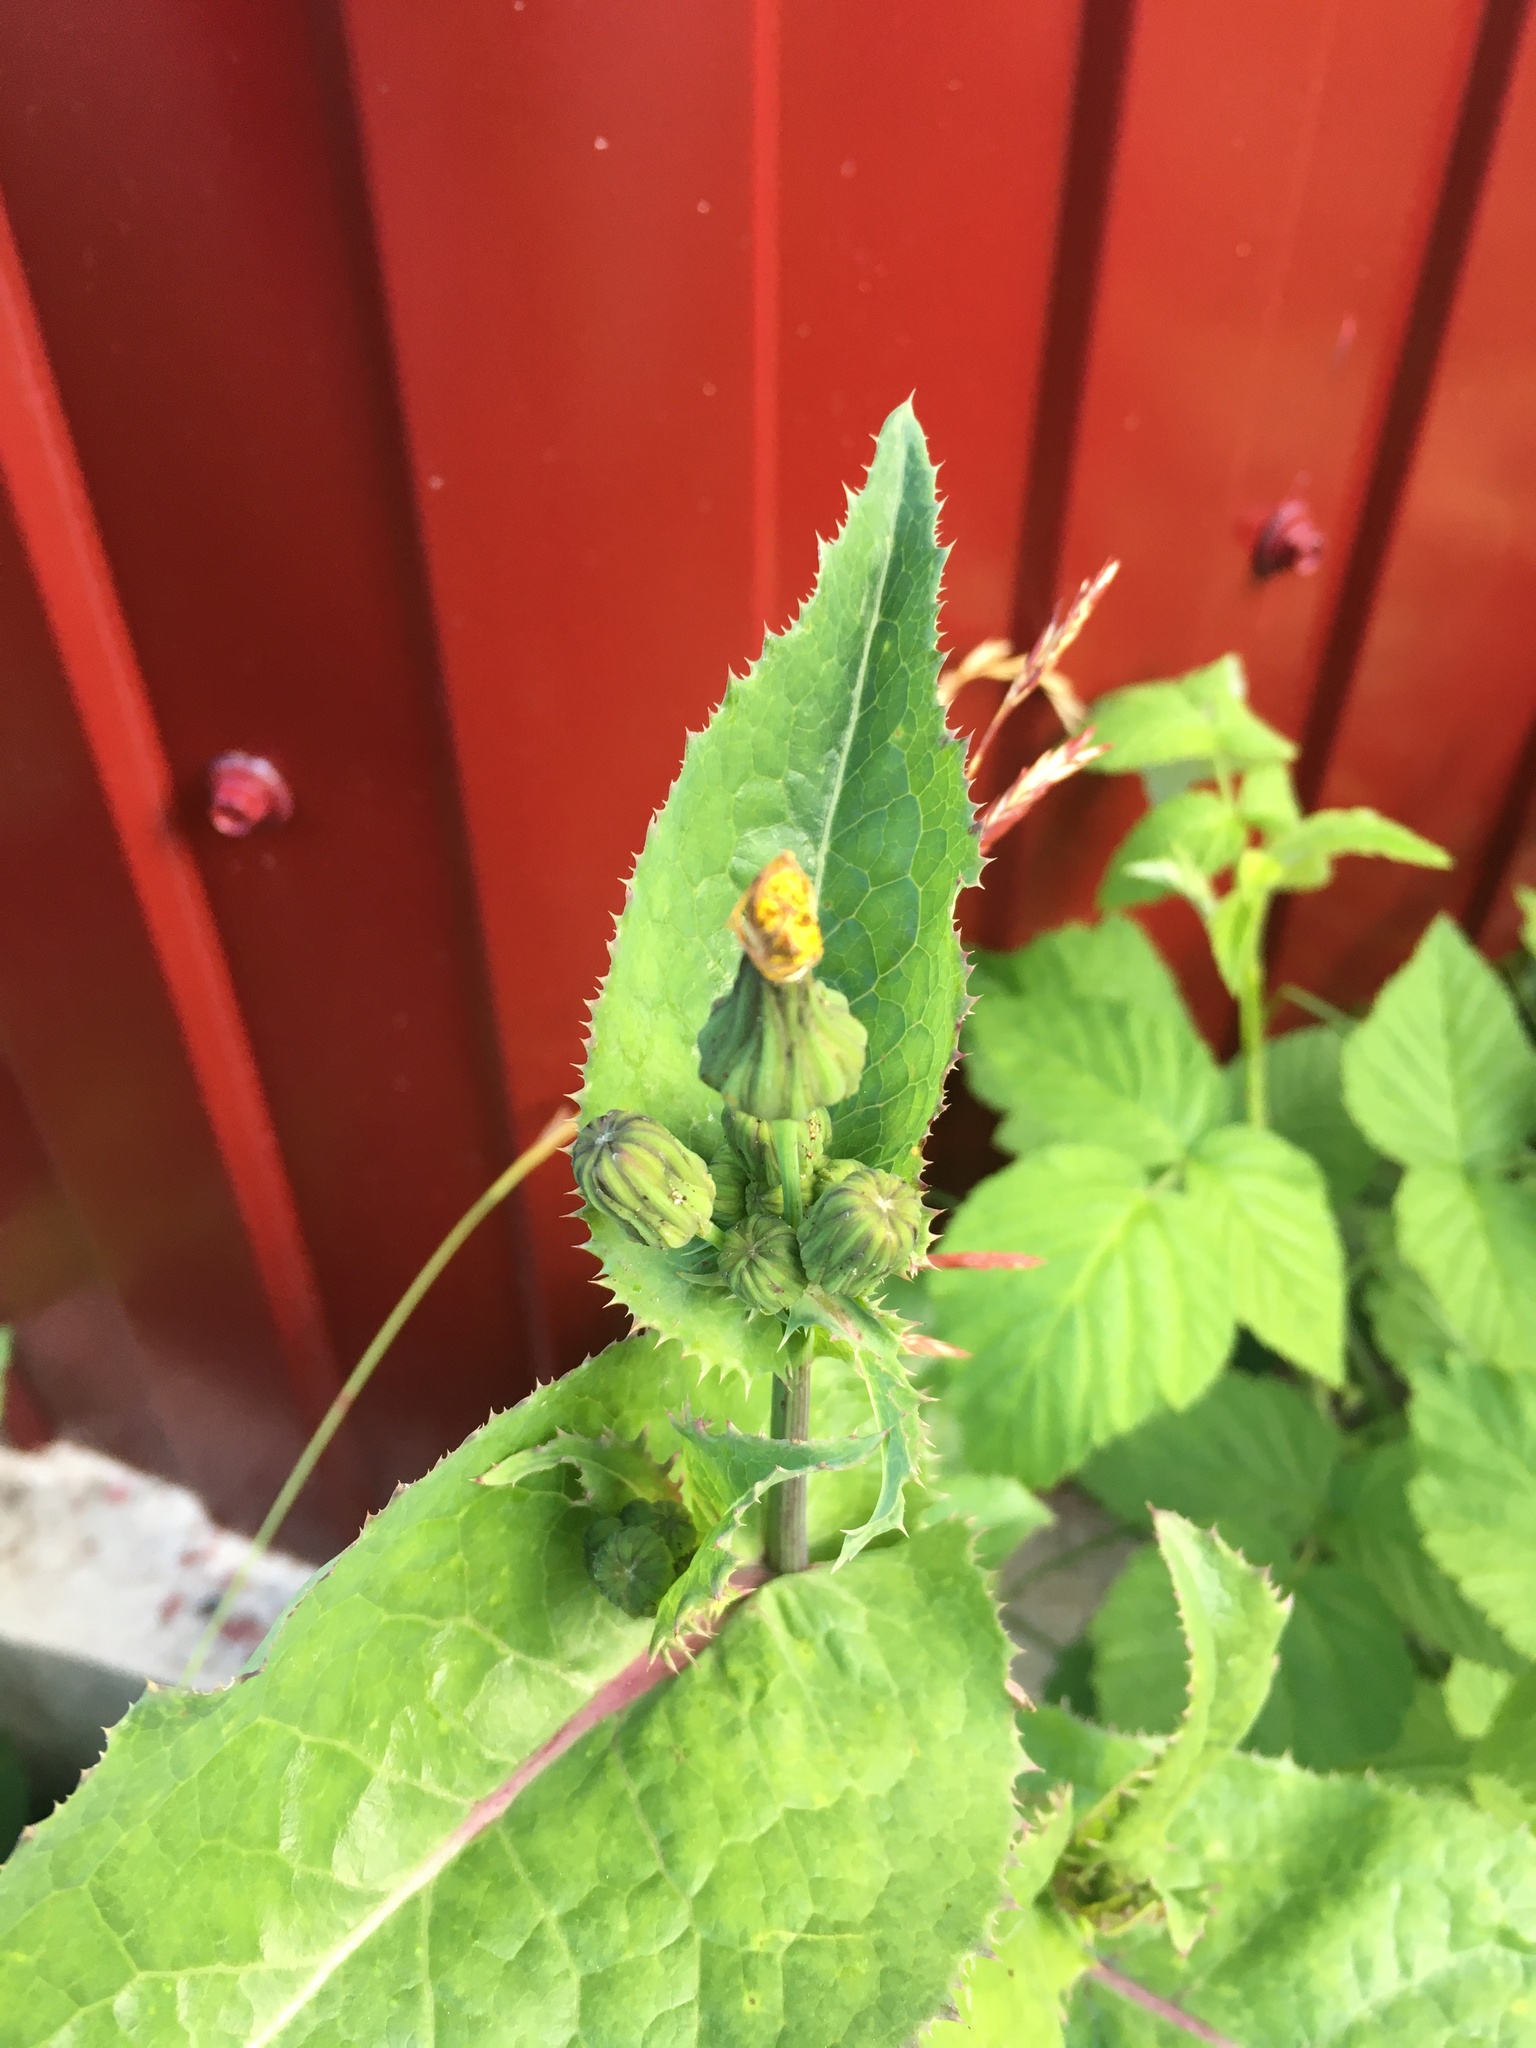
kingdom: Plantae
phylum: Tracheophyta
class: Magnoliopsida
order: Asterales
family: Asteraceae
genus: Sonchus
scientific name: Sonchus oleraceus
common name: Common sowthistle
